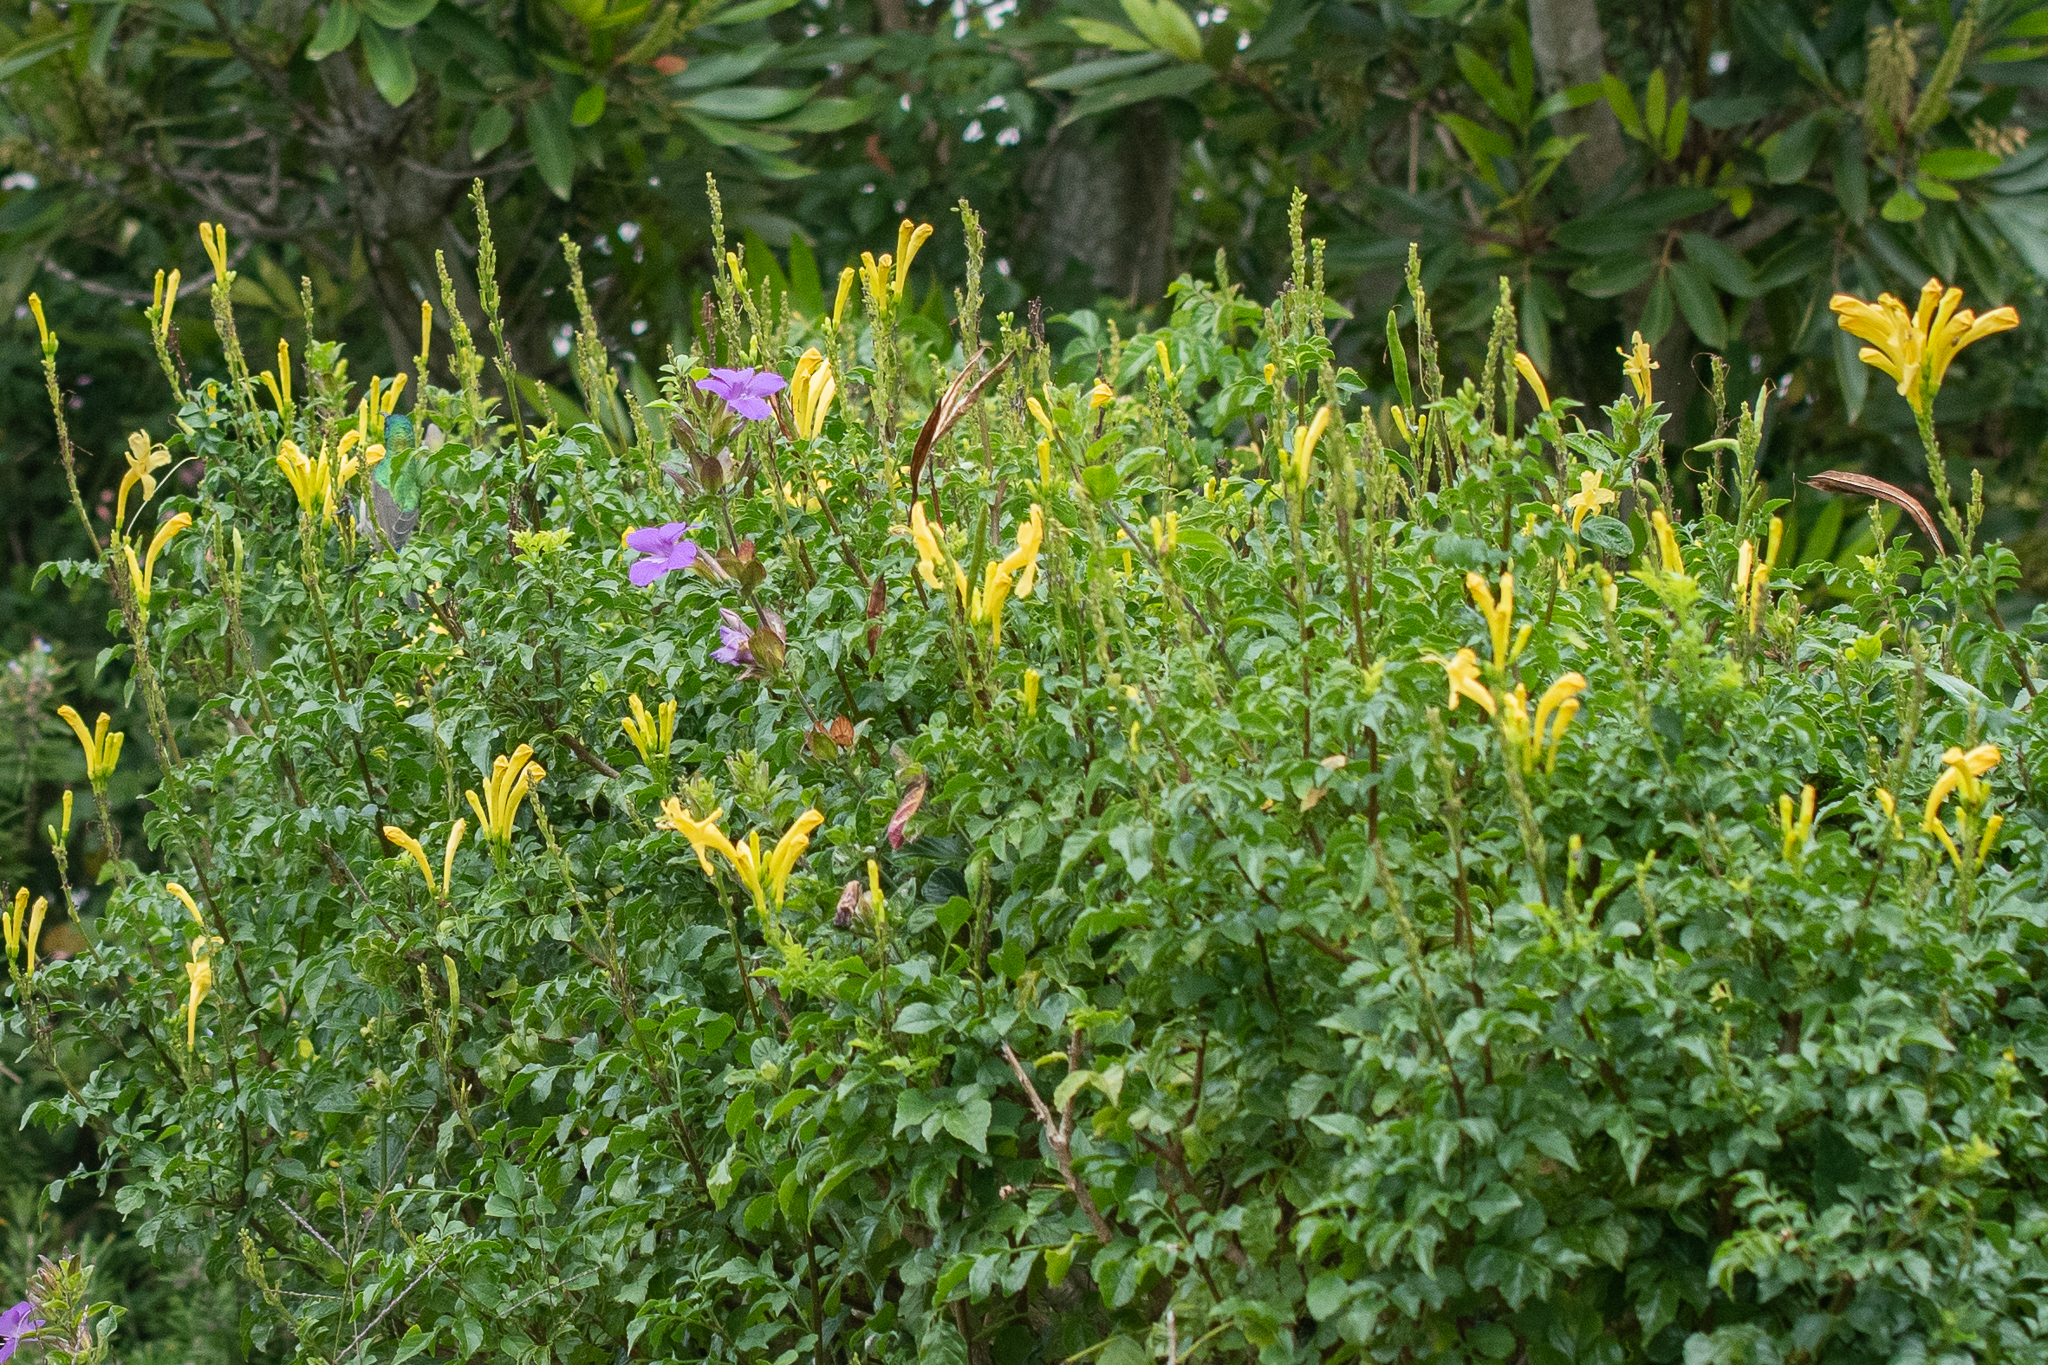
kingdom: Plantae
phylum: Tracheophyta
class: Magnoliopsida
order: Lamiales
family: Bignoniaceae
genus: Tecomaria
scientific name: Tecomaria capensis
